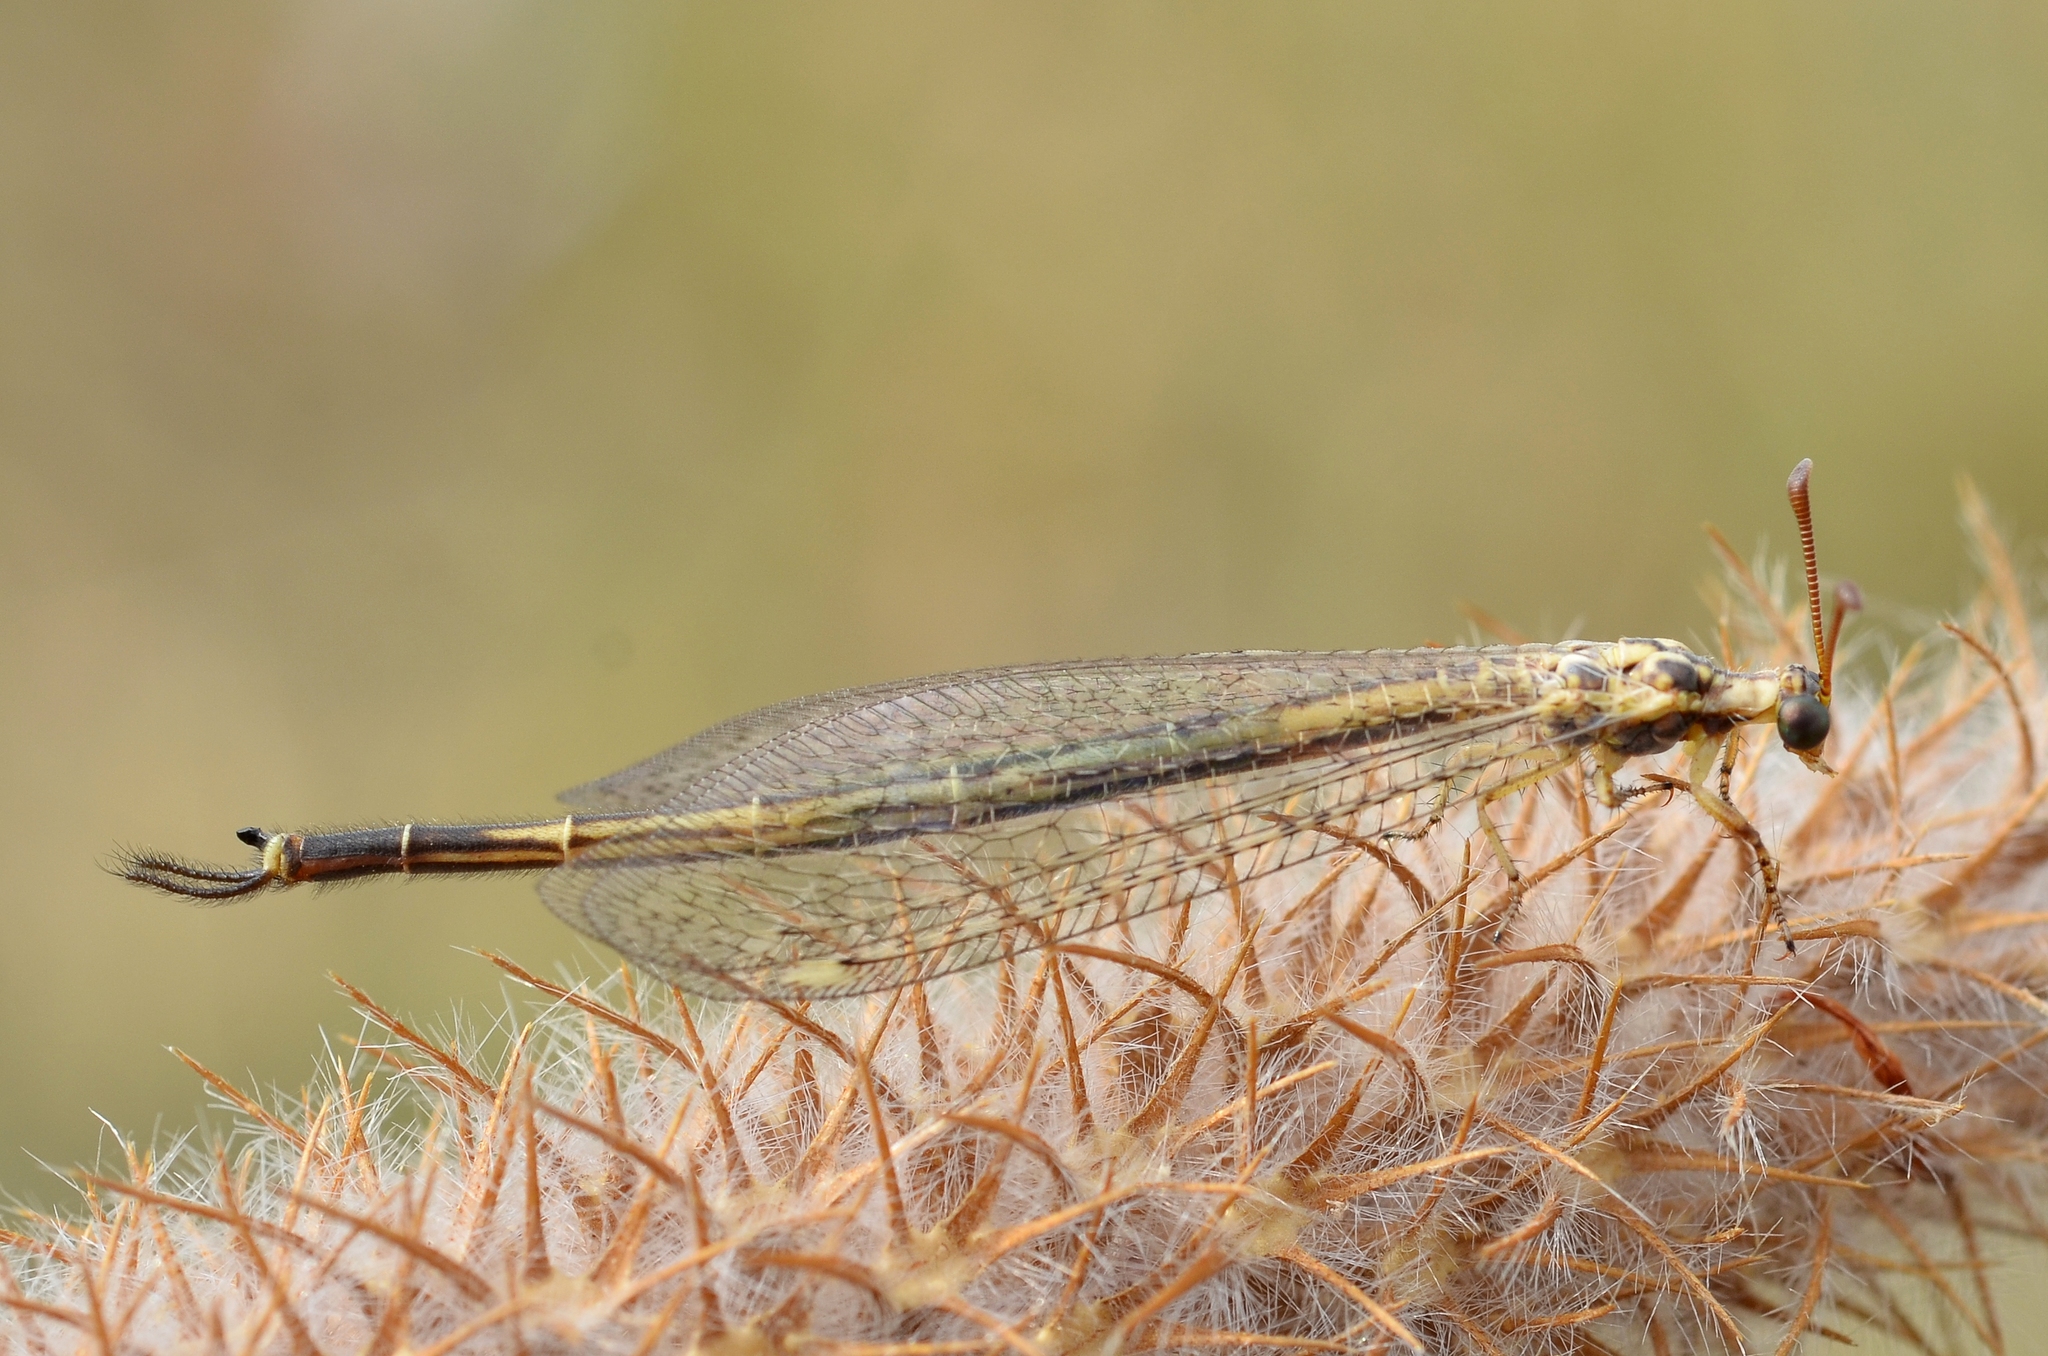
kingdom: Animalia
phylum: Arthropoda
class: Insecta
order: Neuroptera
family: Myrmeleontidae
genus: Macronemurus
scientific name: Macronemurus appendiculatus
